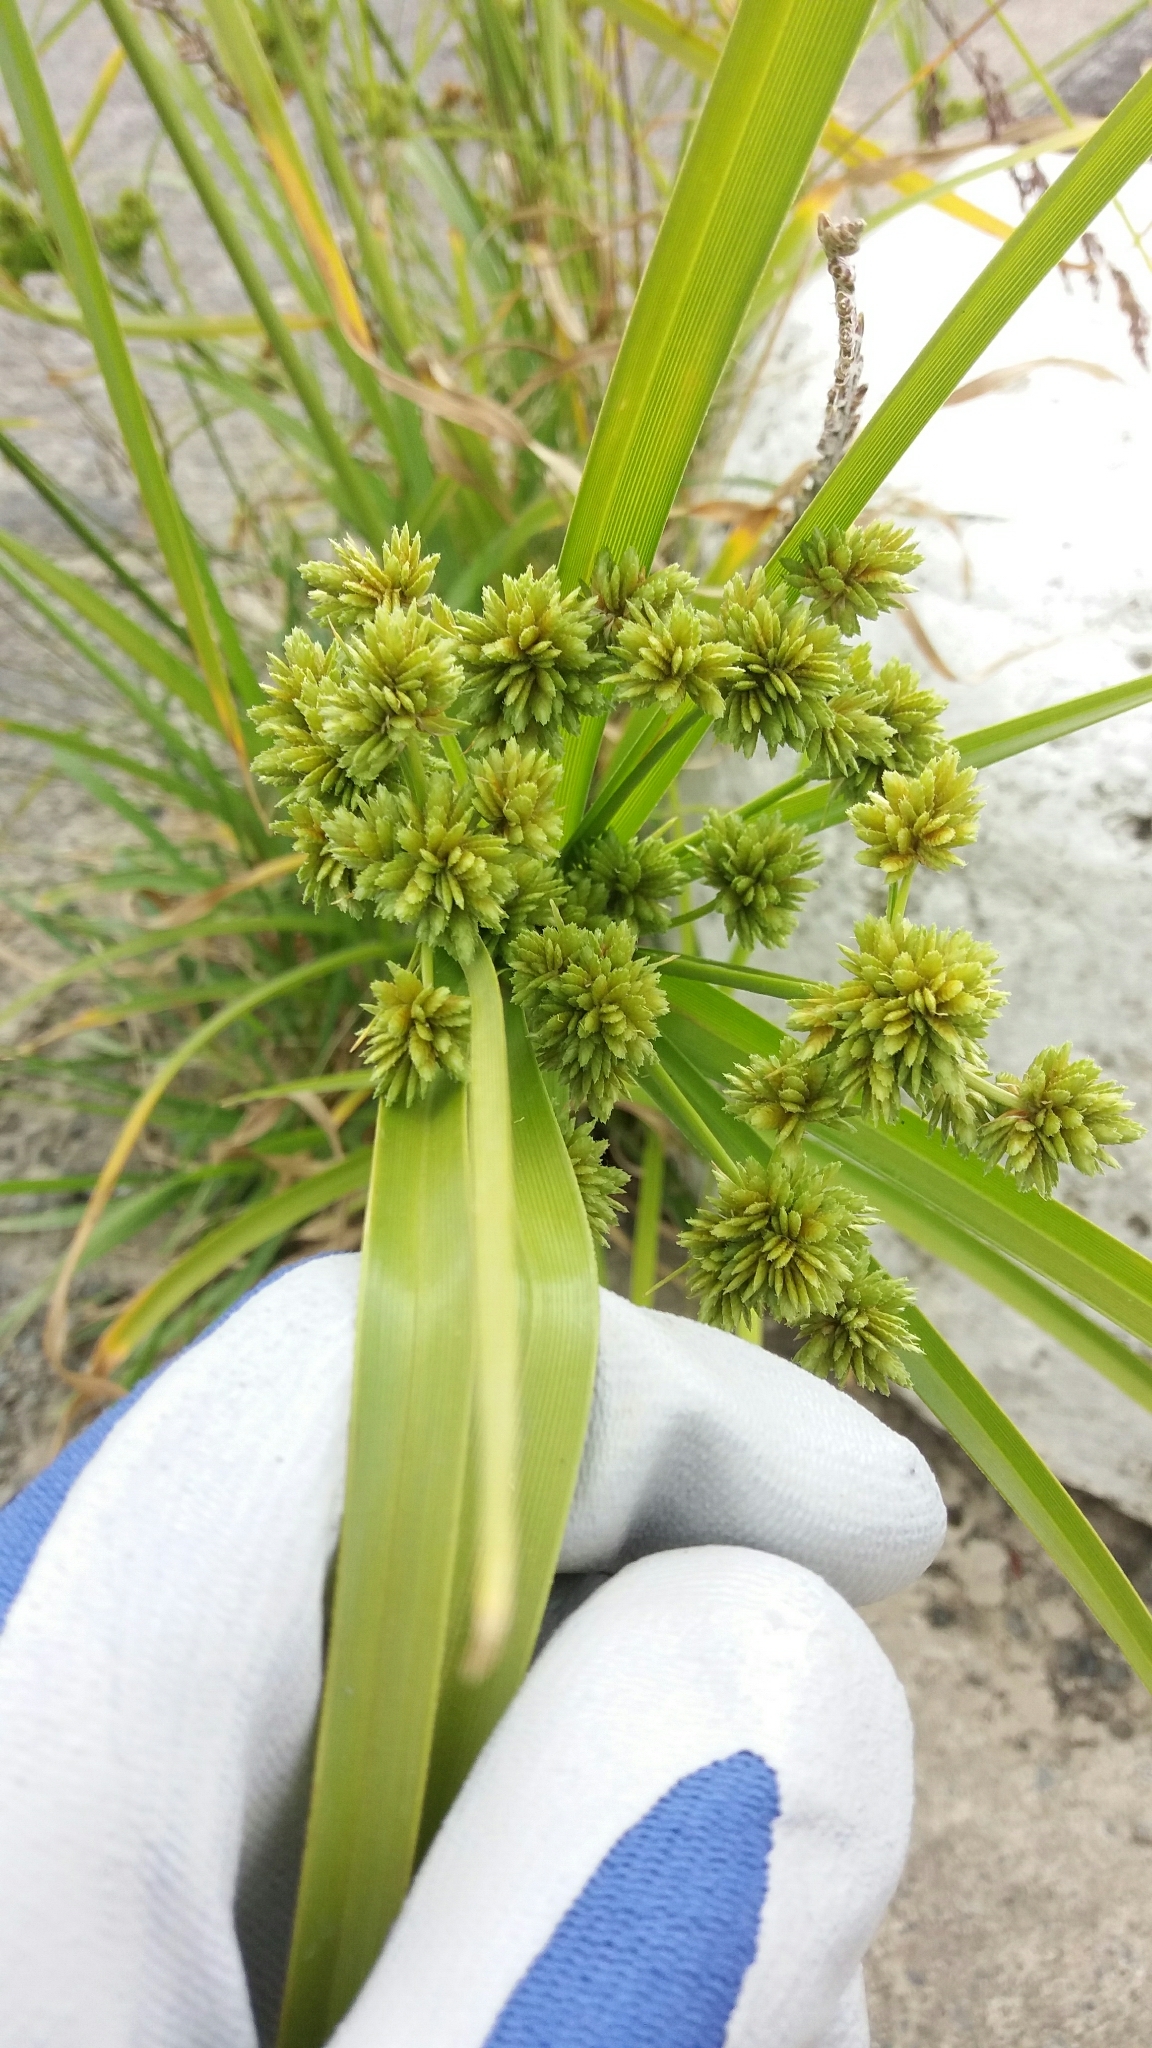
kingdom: Plantae
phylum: Tracheophyta
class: Liliopsida
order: Poales
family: Cyperaceae
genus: Cyperus
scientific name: Cyperus eragrostis
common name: Tall flatsedge
